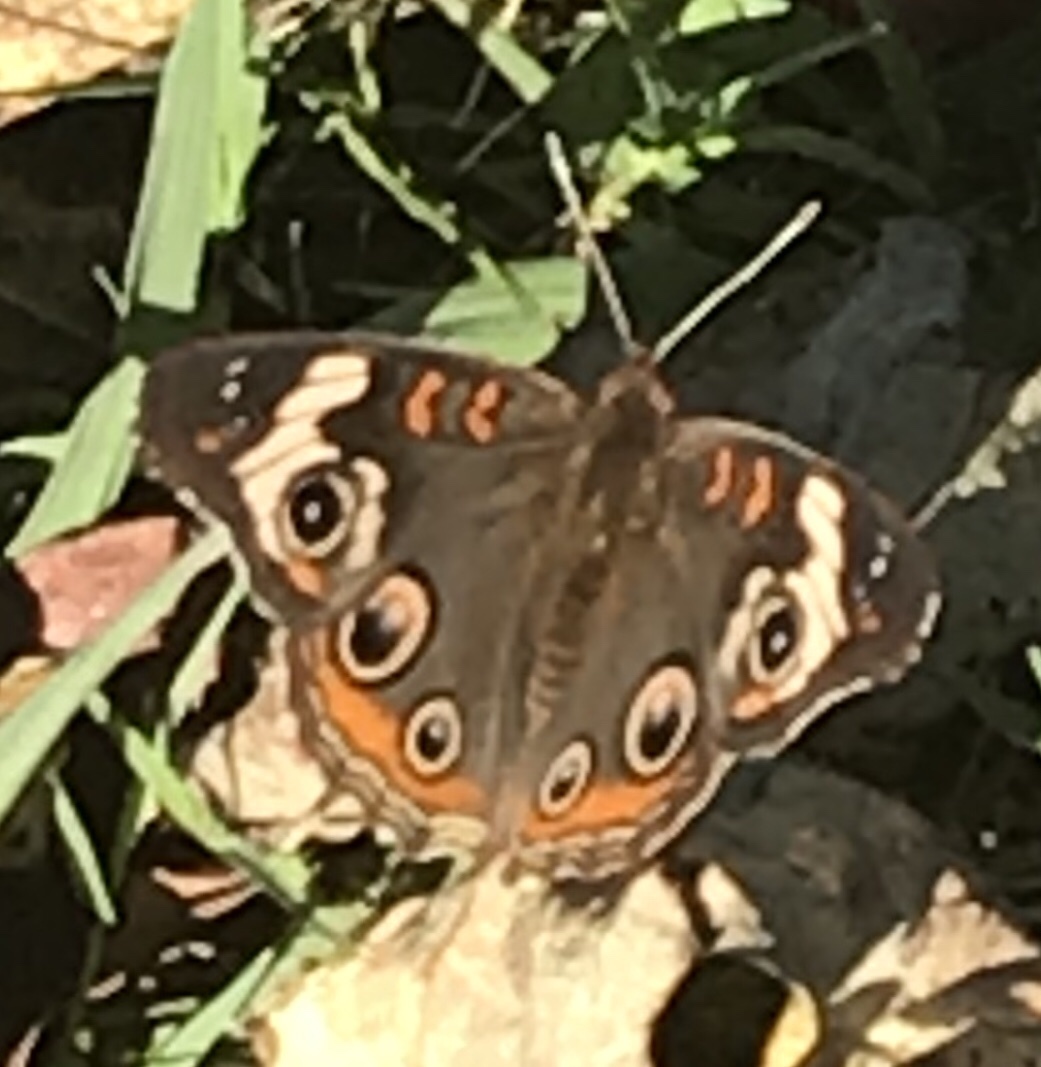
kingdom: Animalia
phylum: Arthropoda
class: Insecta
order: Lepidoptera
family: Nymphalidae
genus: Junonia
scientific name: Junonia coenia
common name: Common buckeye
